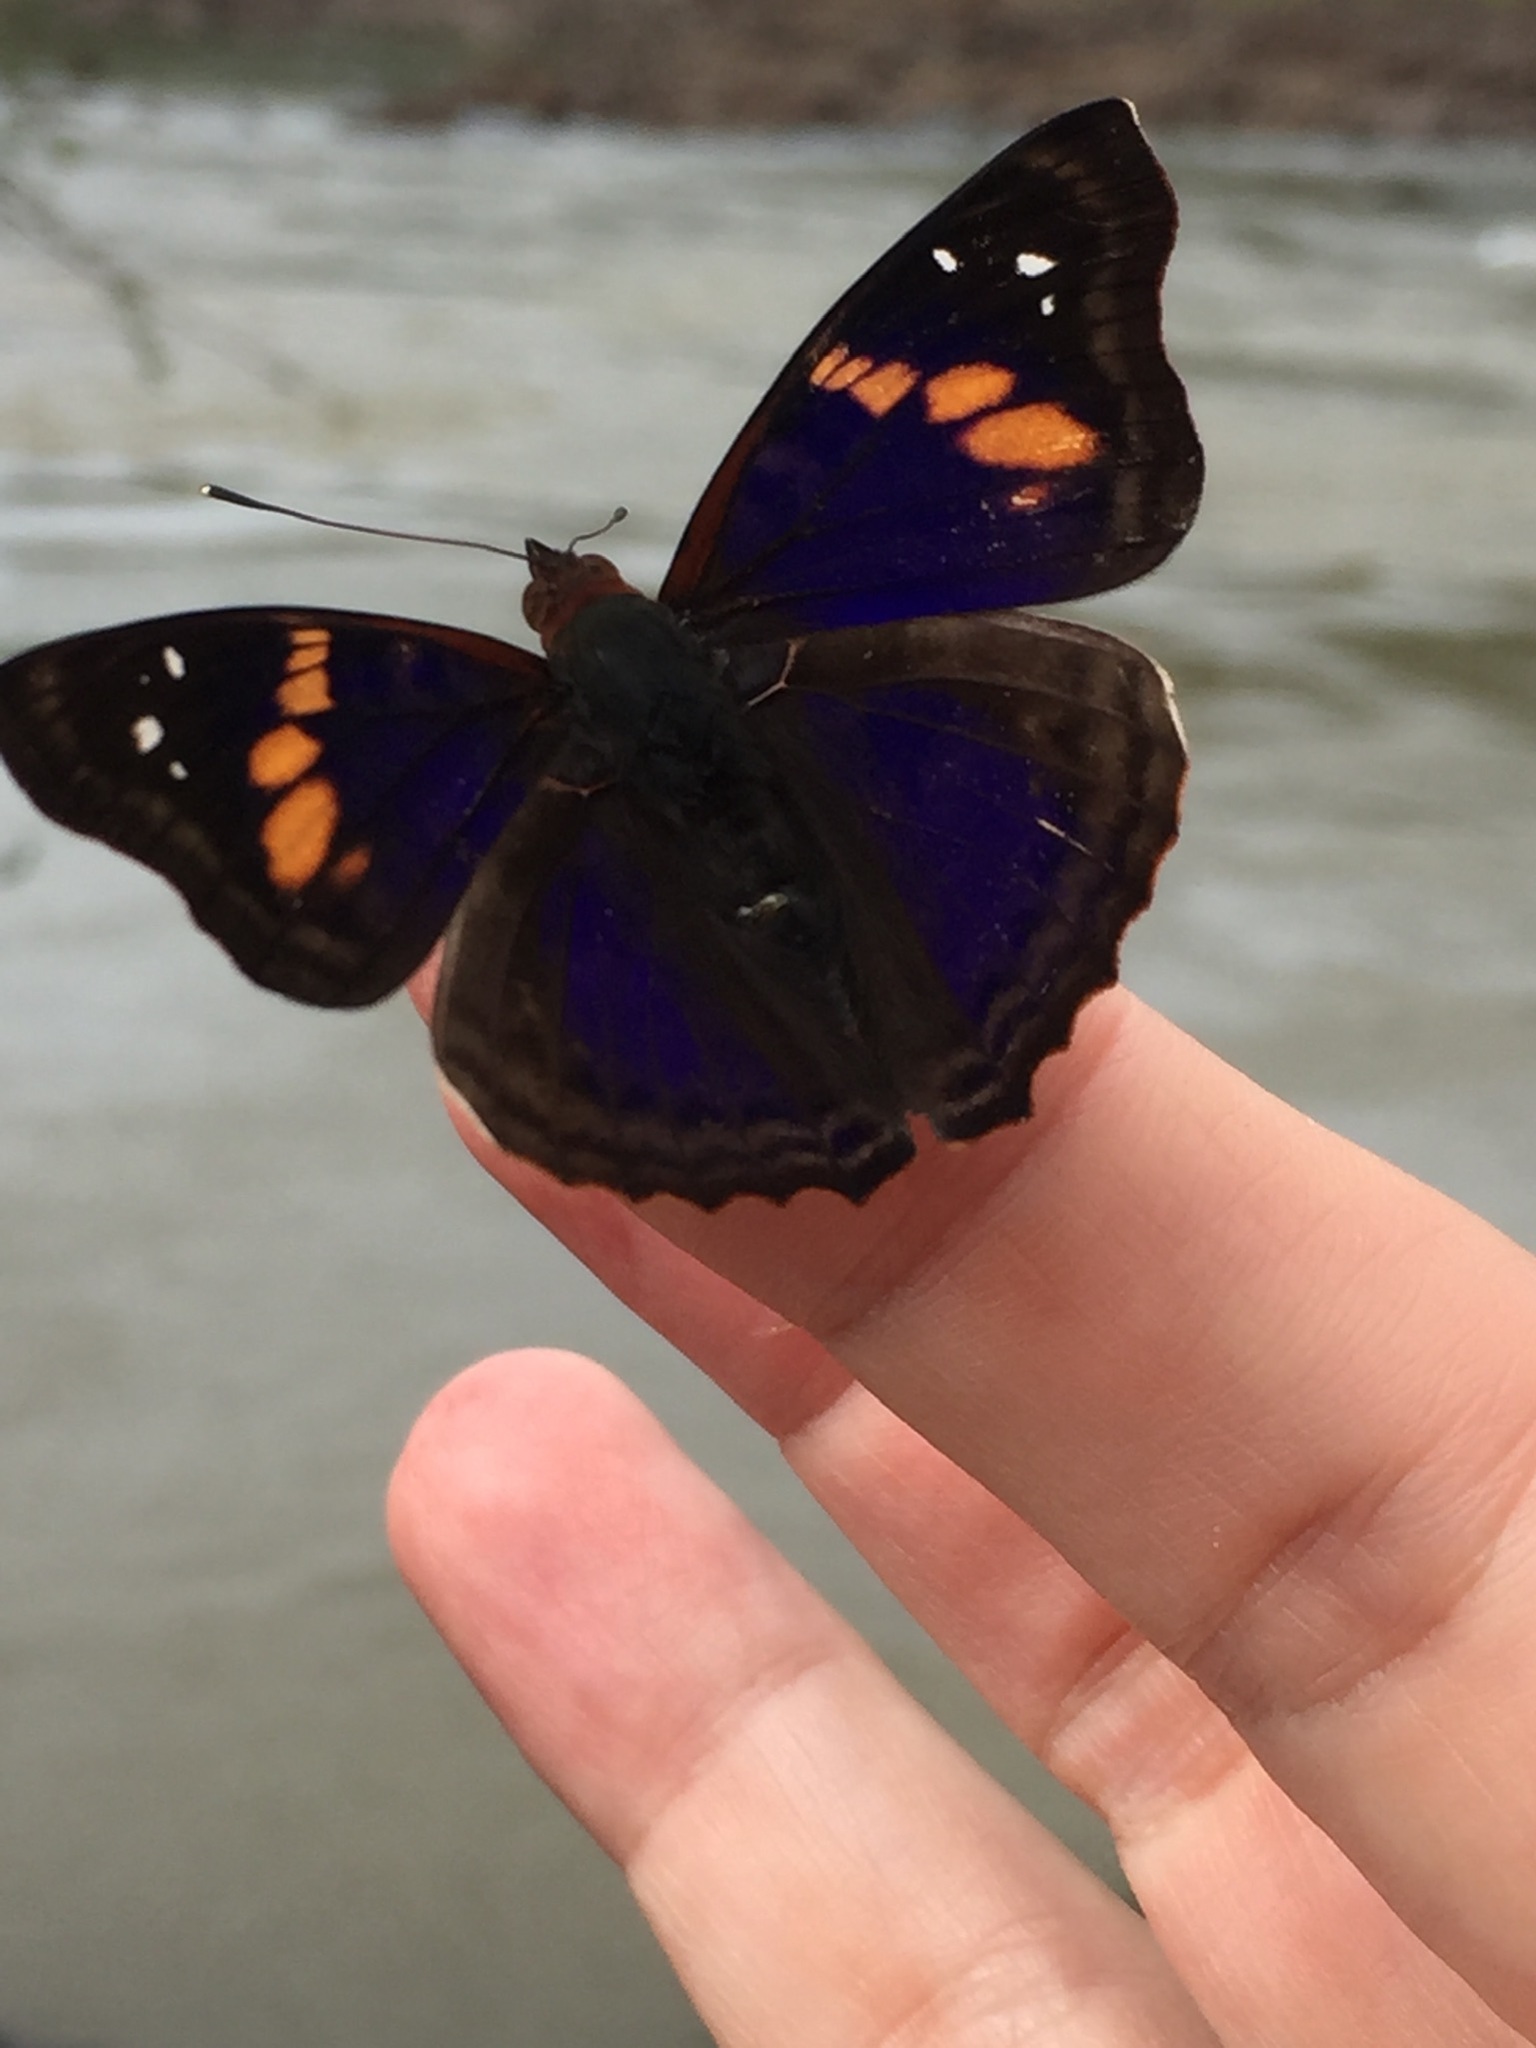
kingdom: Animalia
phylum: Arthropoda
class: Insecta
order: Lepidoptera
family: Nymphalidae
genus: Doxocopa
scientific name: Doxocopa agathina
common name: Agathina emperor
